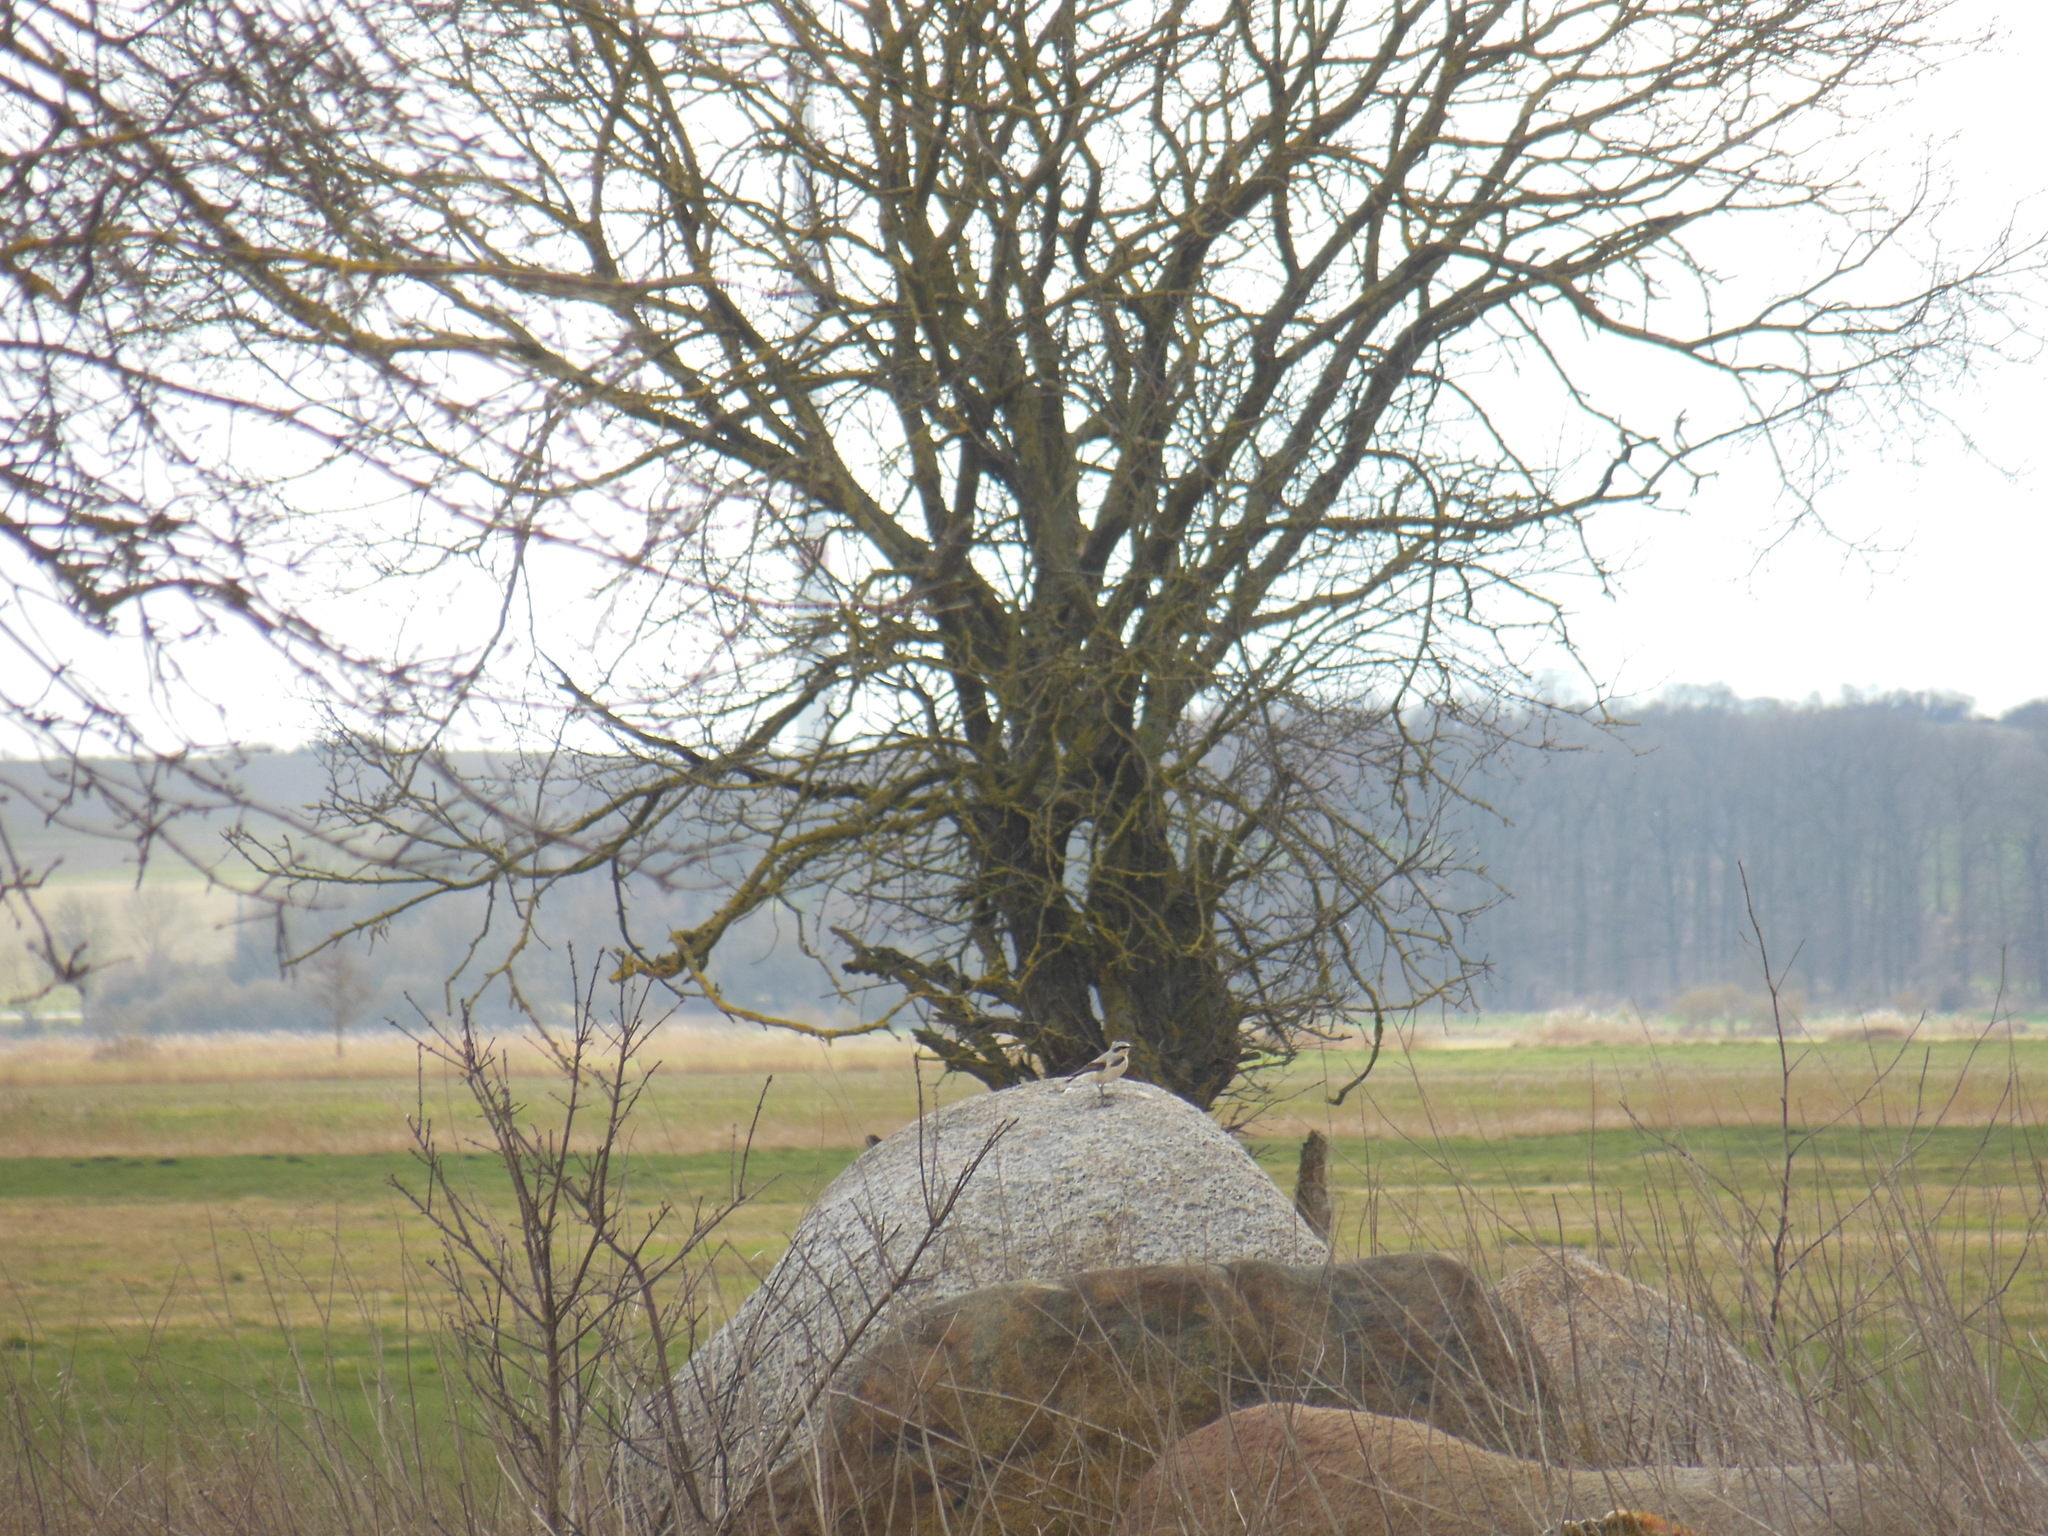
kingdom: Animalia
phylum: Chordata
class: Aves
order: Passeriformes
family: Muscicapidae
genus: Oenanthe
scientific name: Oenanthe oenanthe
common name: Northern wheatear
